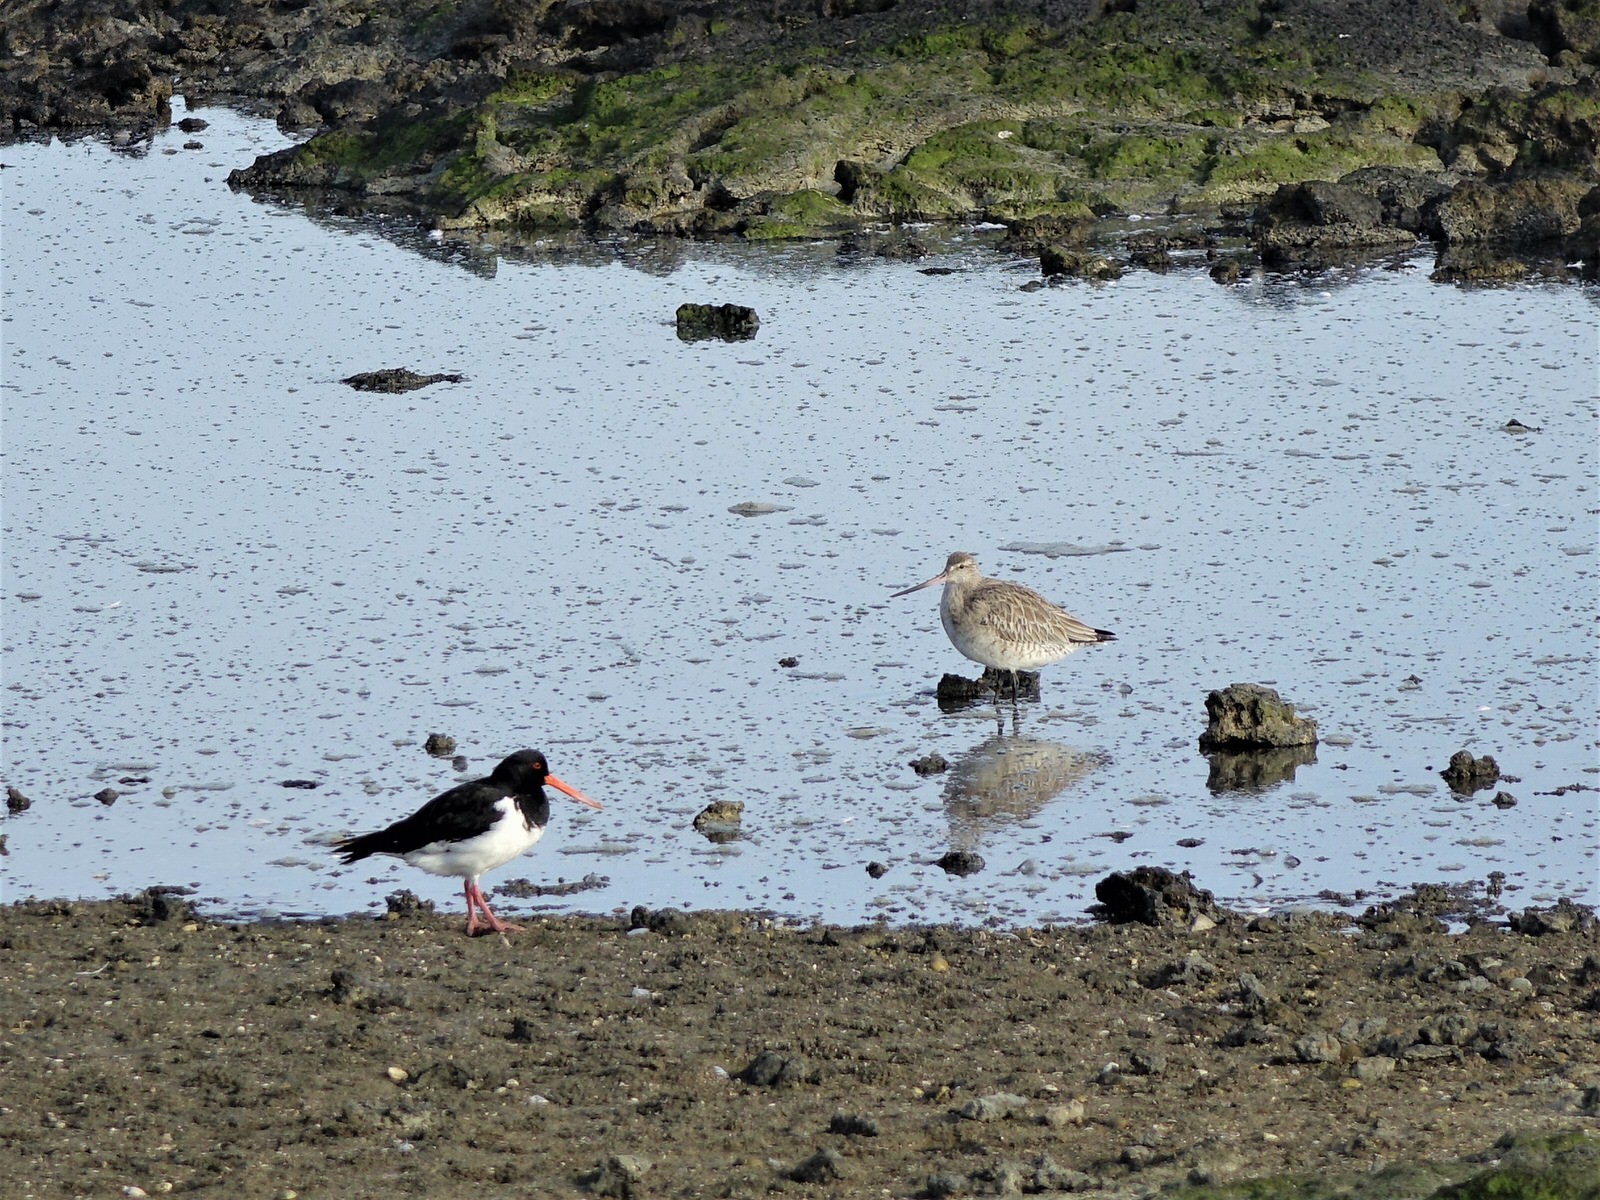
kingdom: Animalia
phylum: Chordata
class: Aves
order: Charadriiformes
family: Scolopacidae
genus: Limosa
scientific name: Limosa lapponica
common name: Bar-tailed godwit
